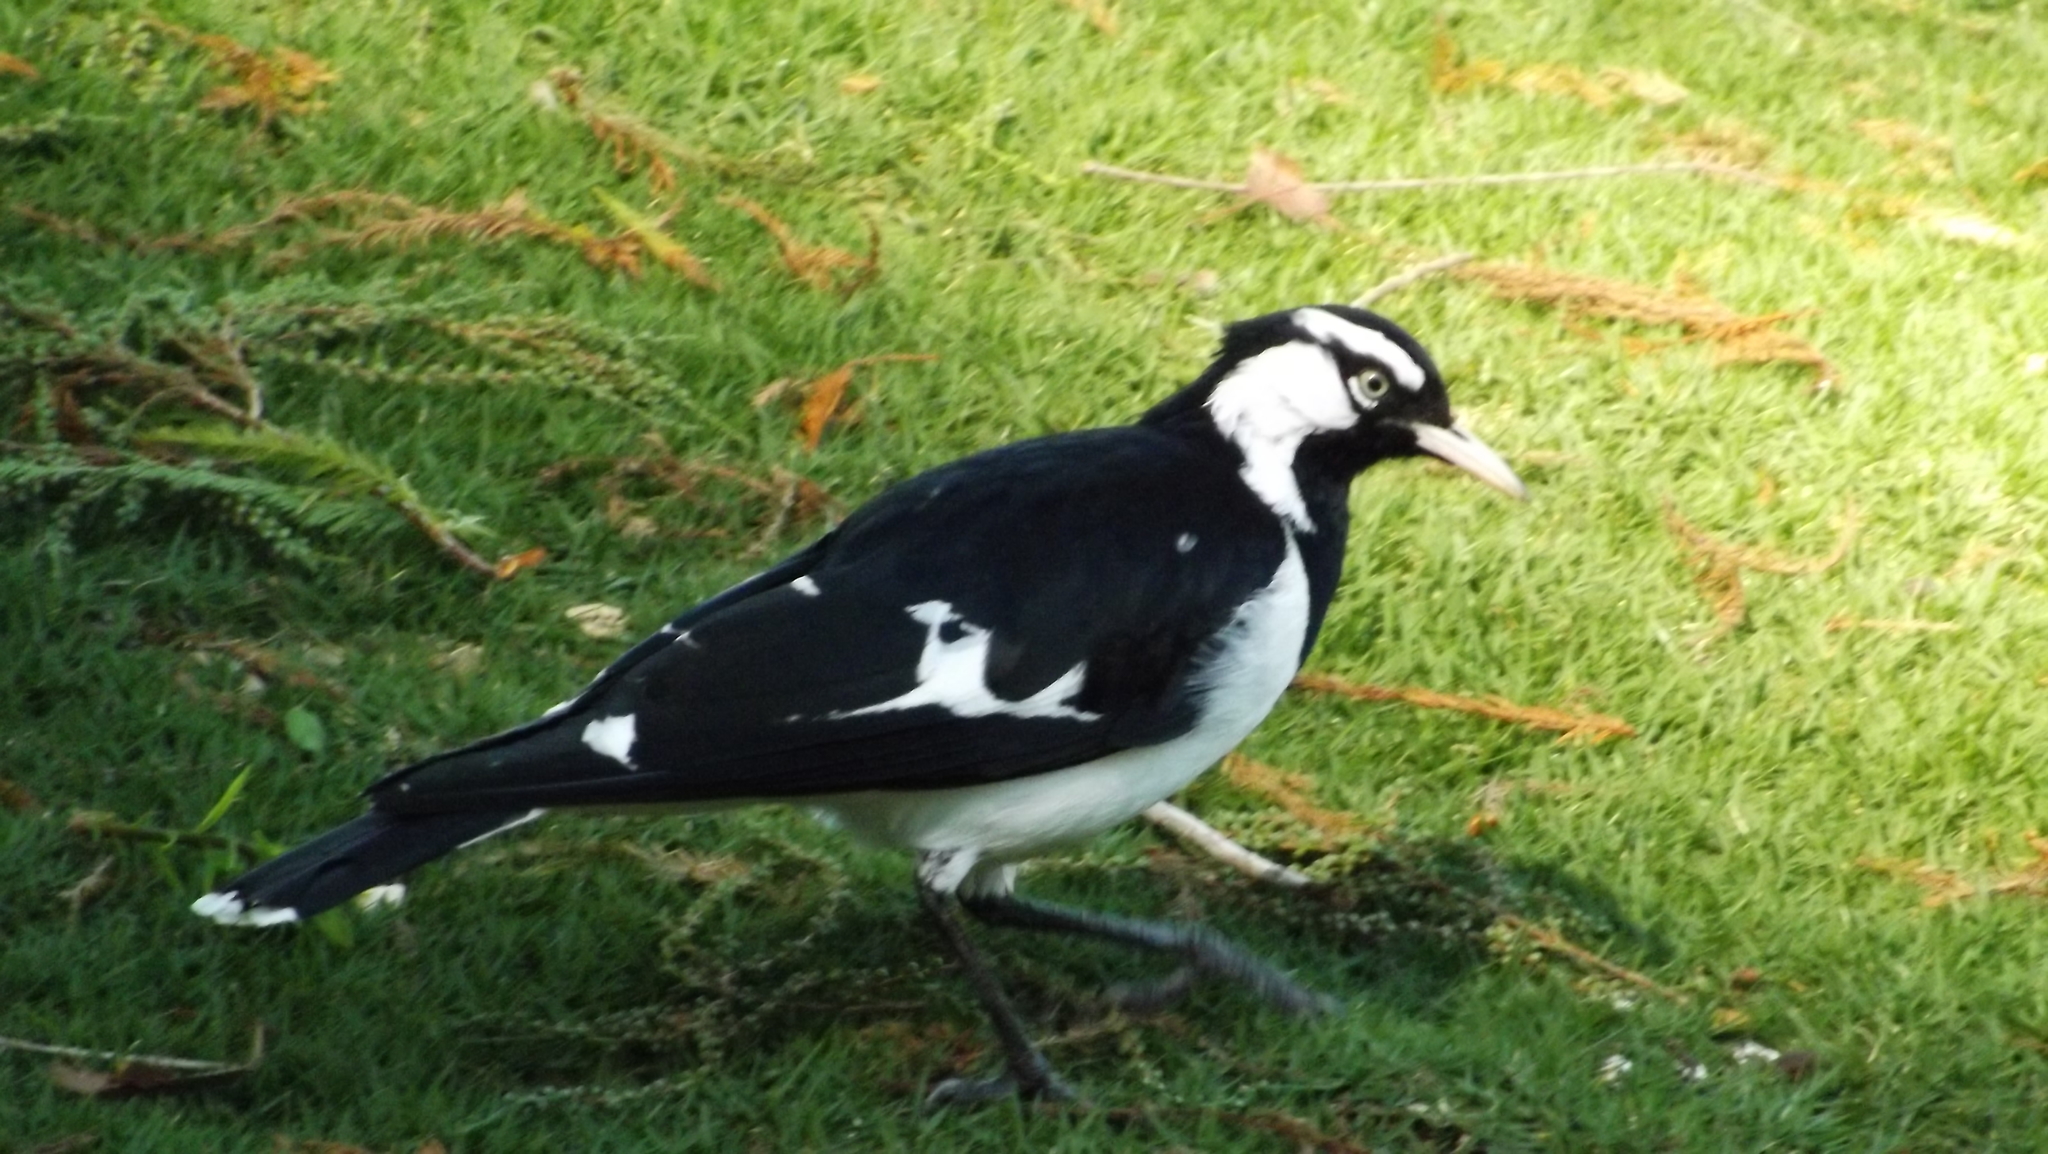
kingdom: Animalia
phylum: Chordata
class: Aves
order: Passeriformes
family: Monarchidae
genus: Grallina
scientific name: Grallina cyanoleuca
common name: Magpie-lark
